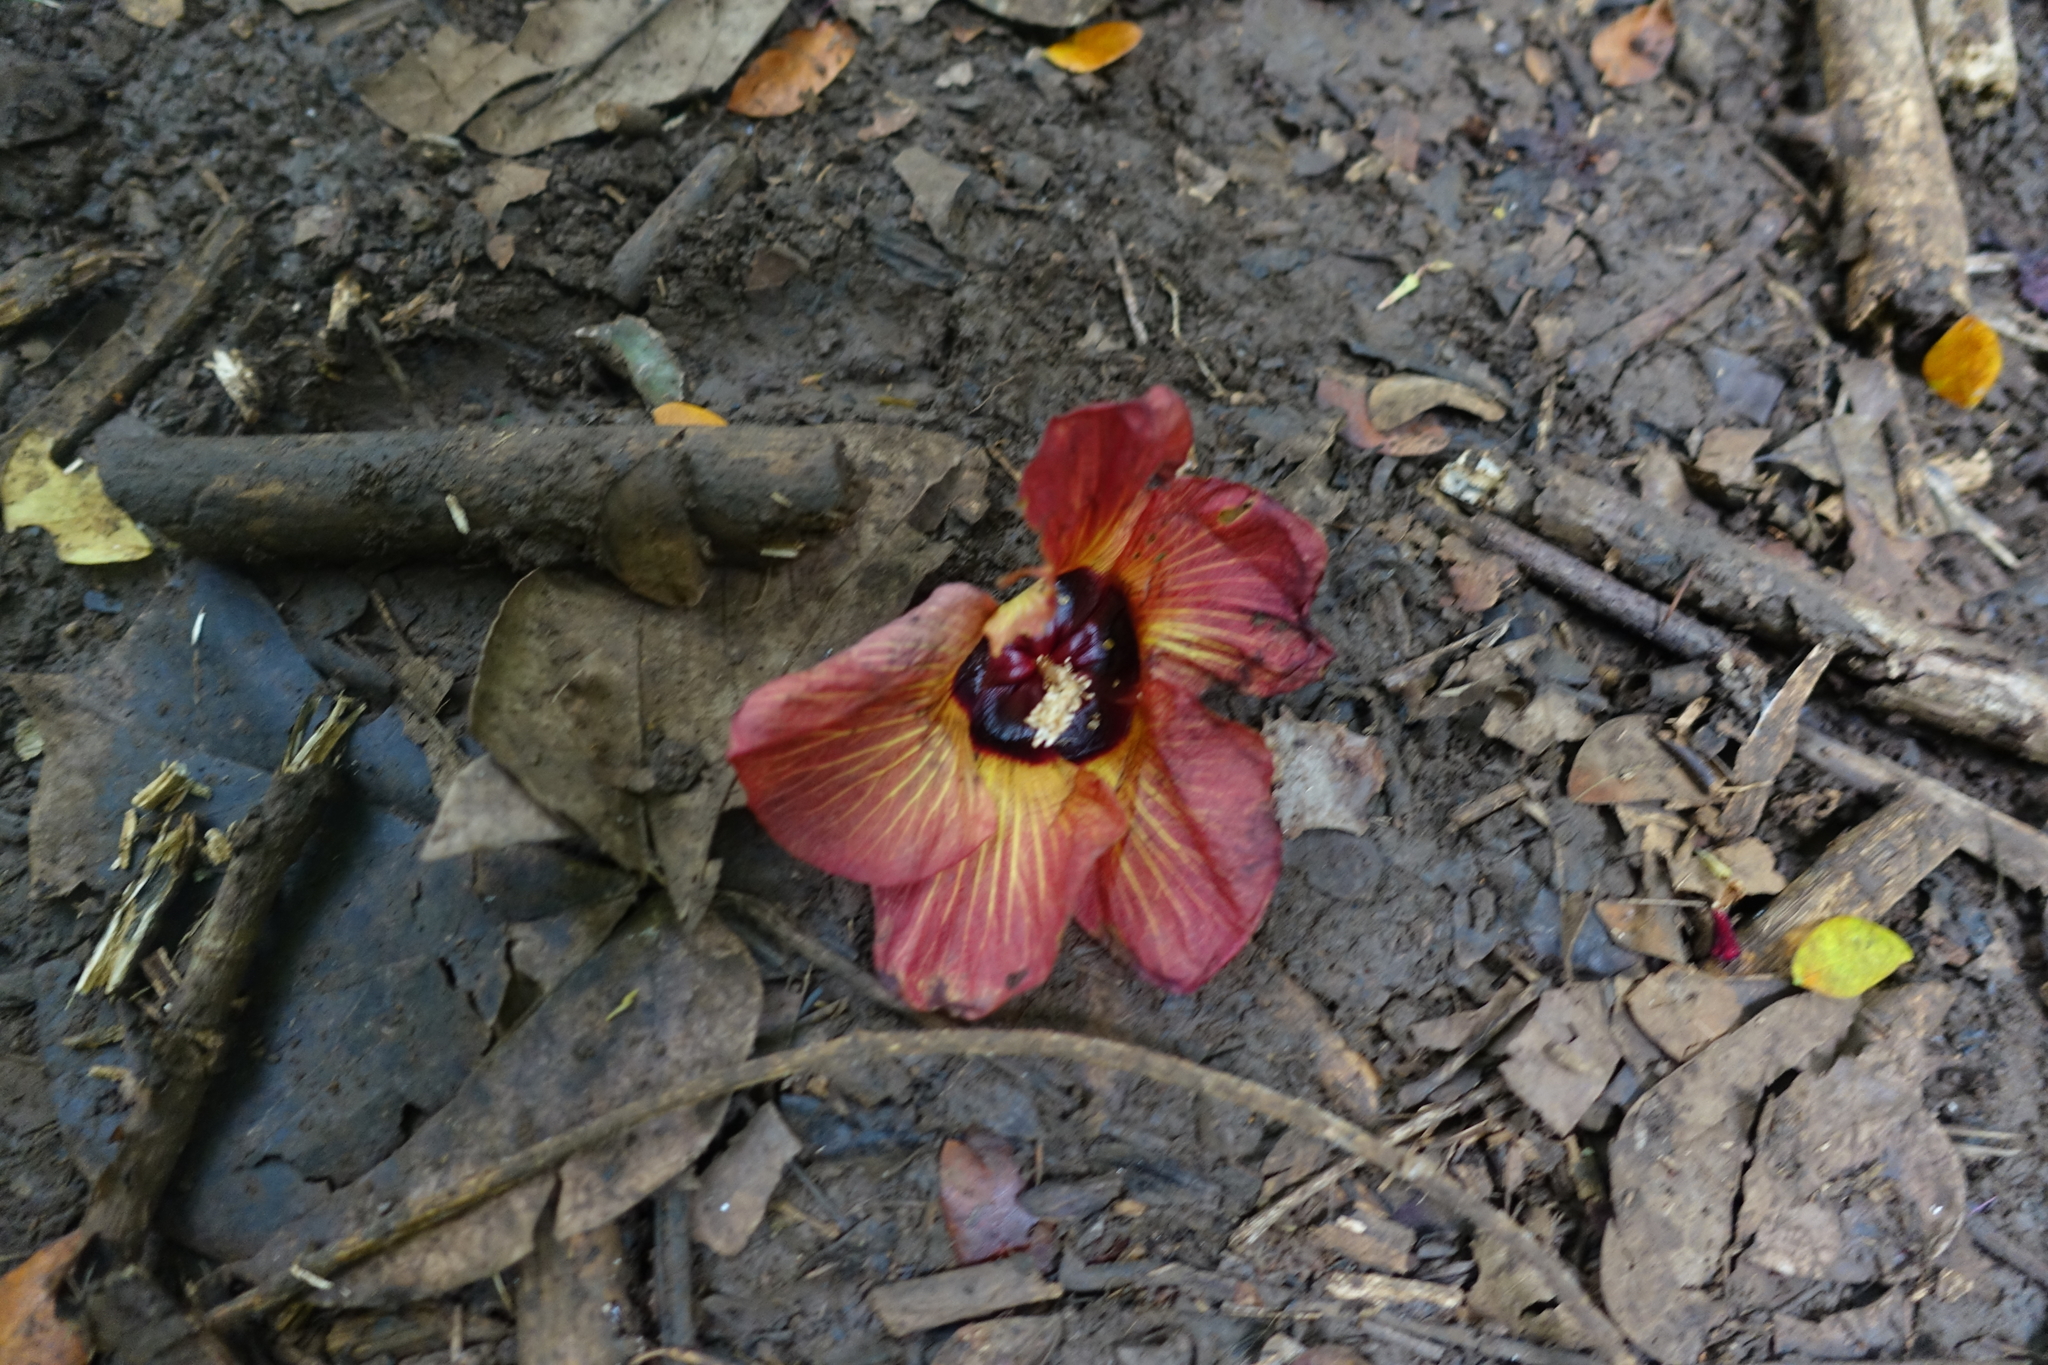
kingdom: Plantae
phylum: Tracheophyta
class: Magnoliopsida
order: Malvales
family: Malvaceae
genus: Talipariti
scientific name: Talipariti tiliaceum
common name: Sea hibiscus
